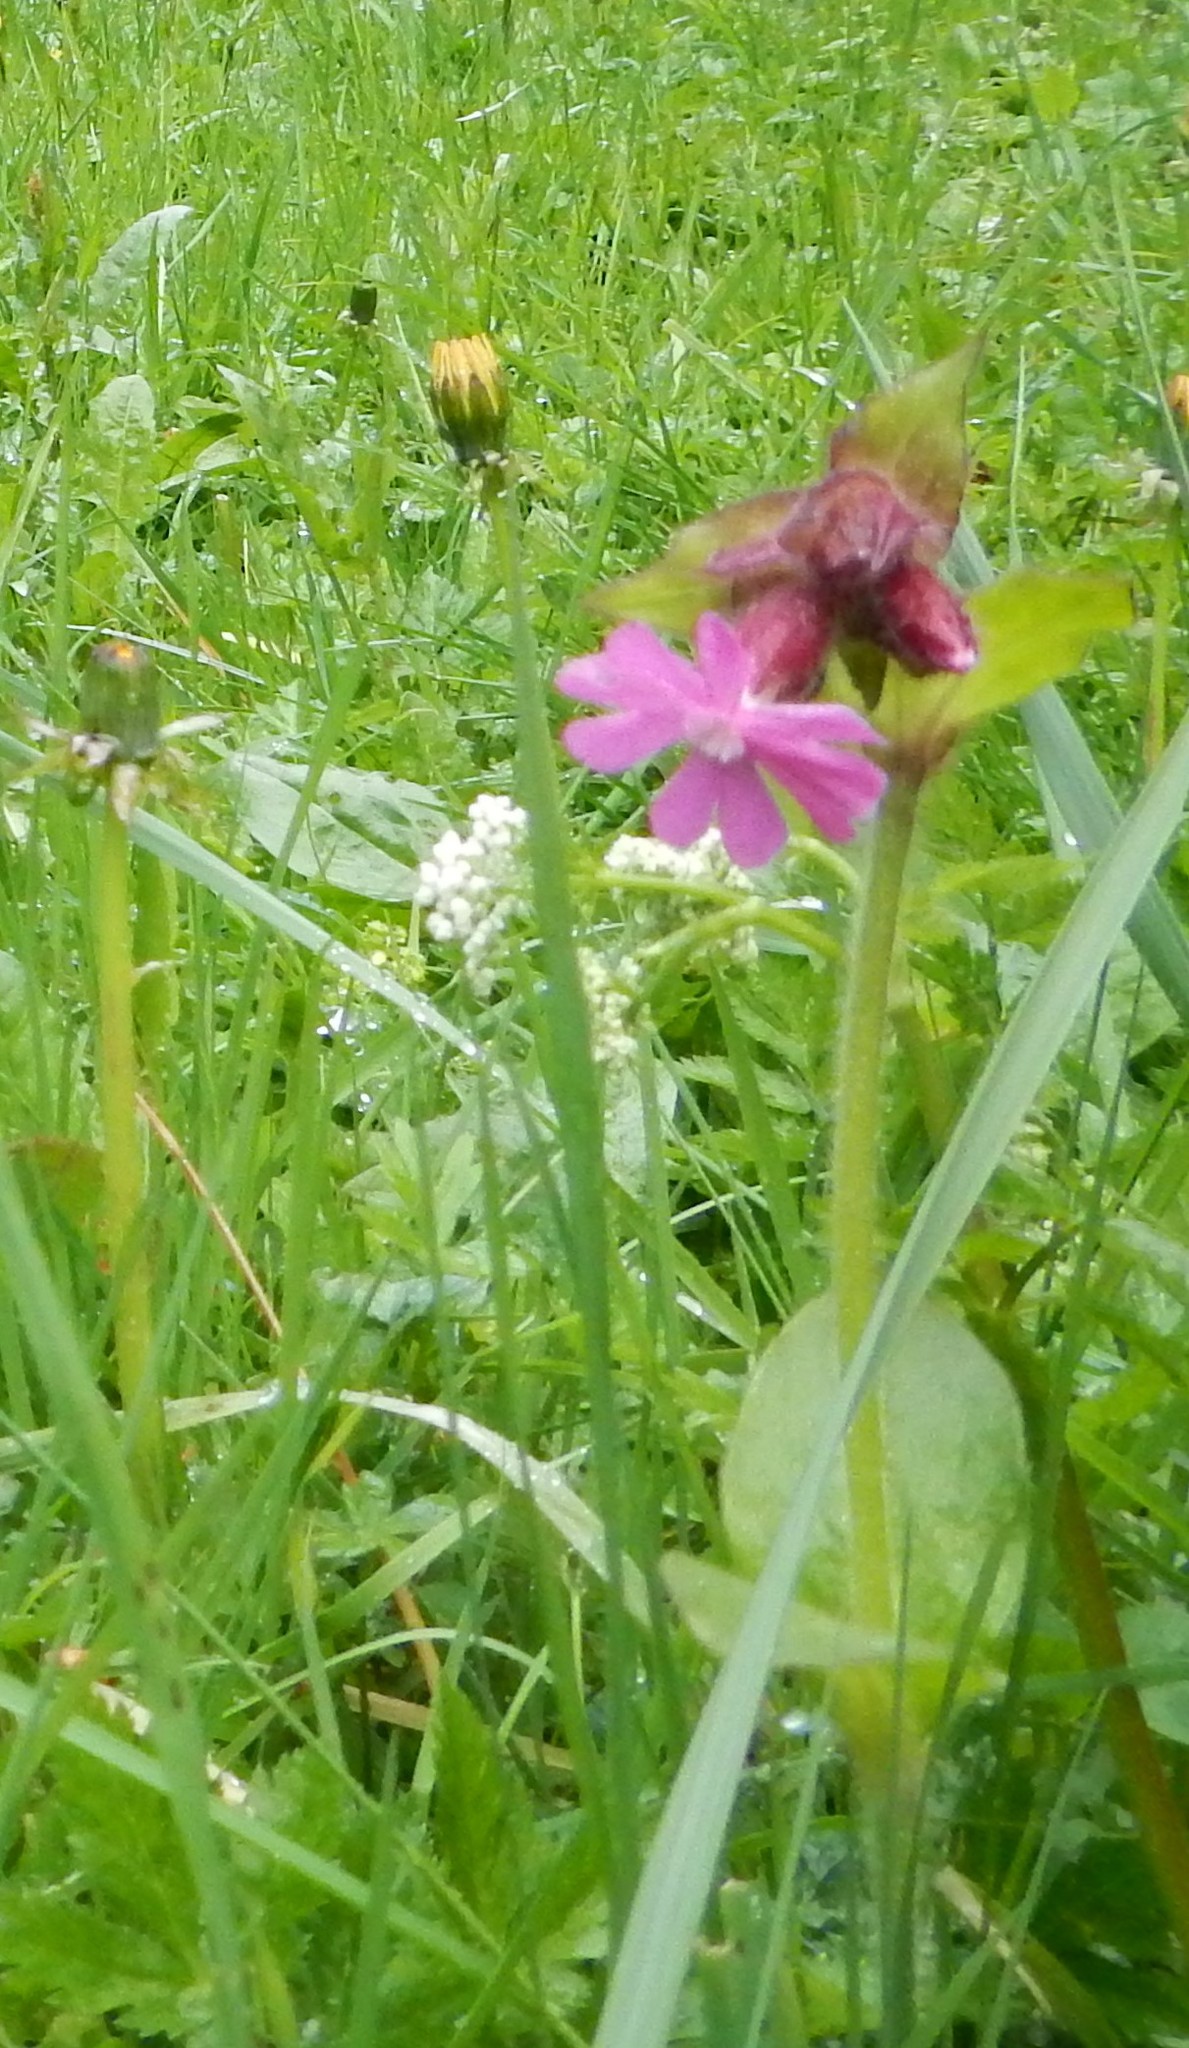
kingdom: Plantae
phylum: Tracheophyta
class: Magnoliopsida
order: Caryophyllales
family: Caryophyllaceae
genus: Silene
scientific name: Silene dioica
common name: Red campion
